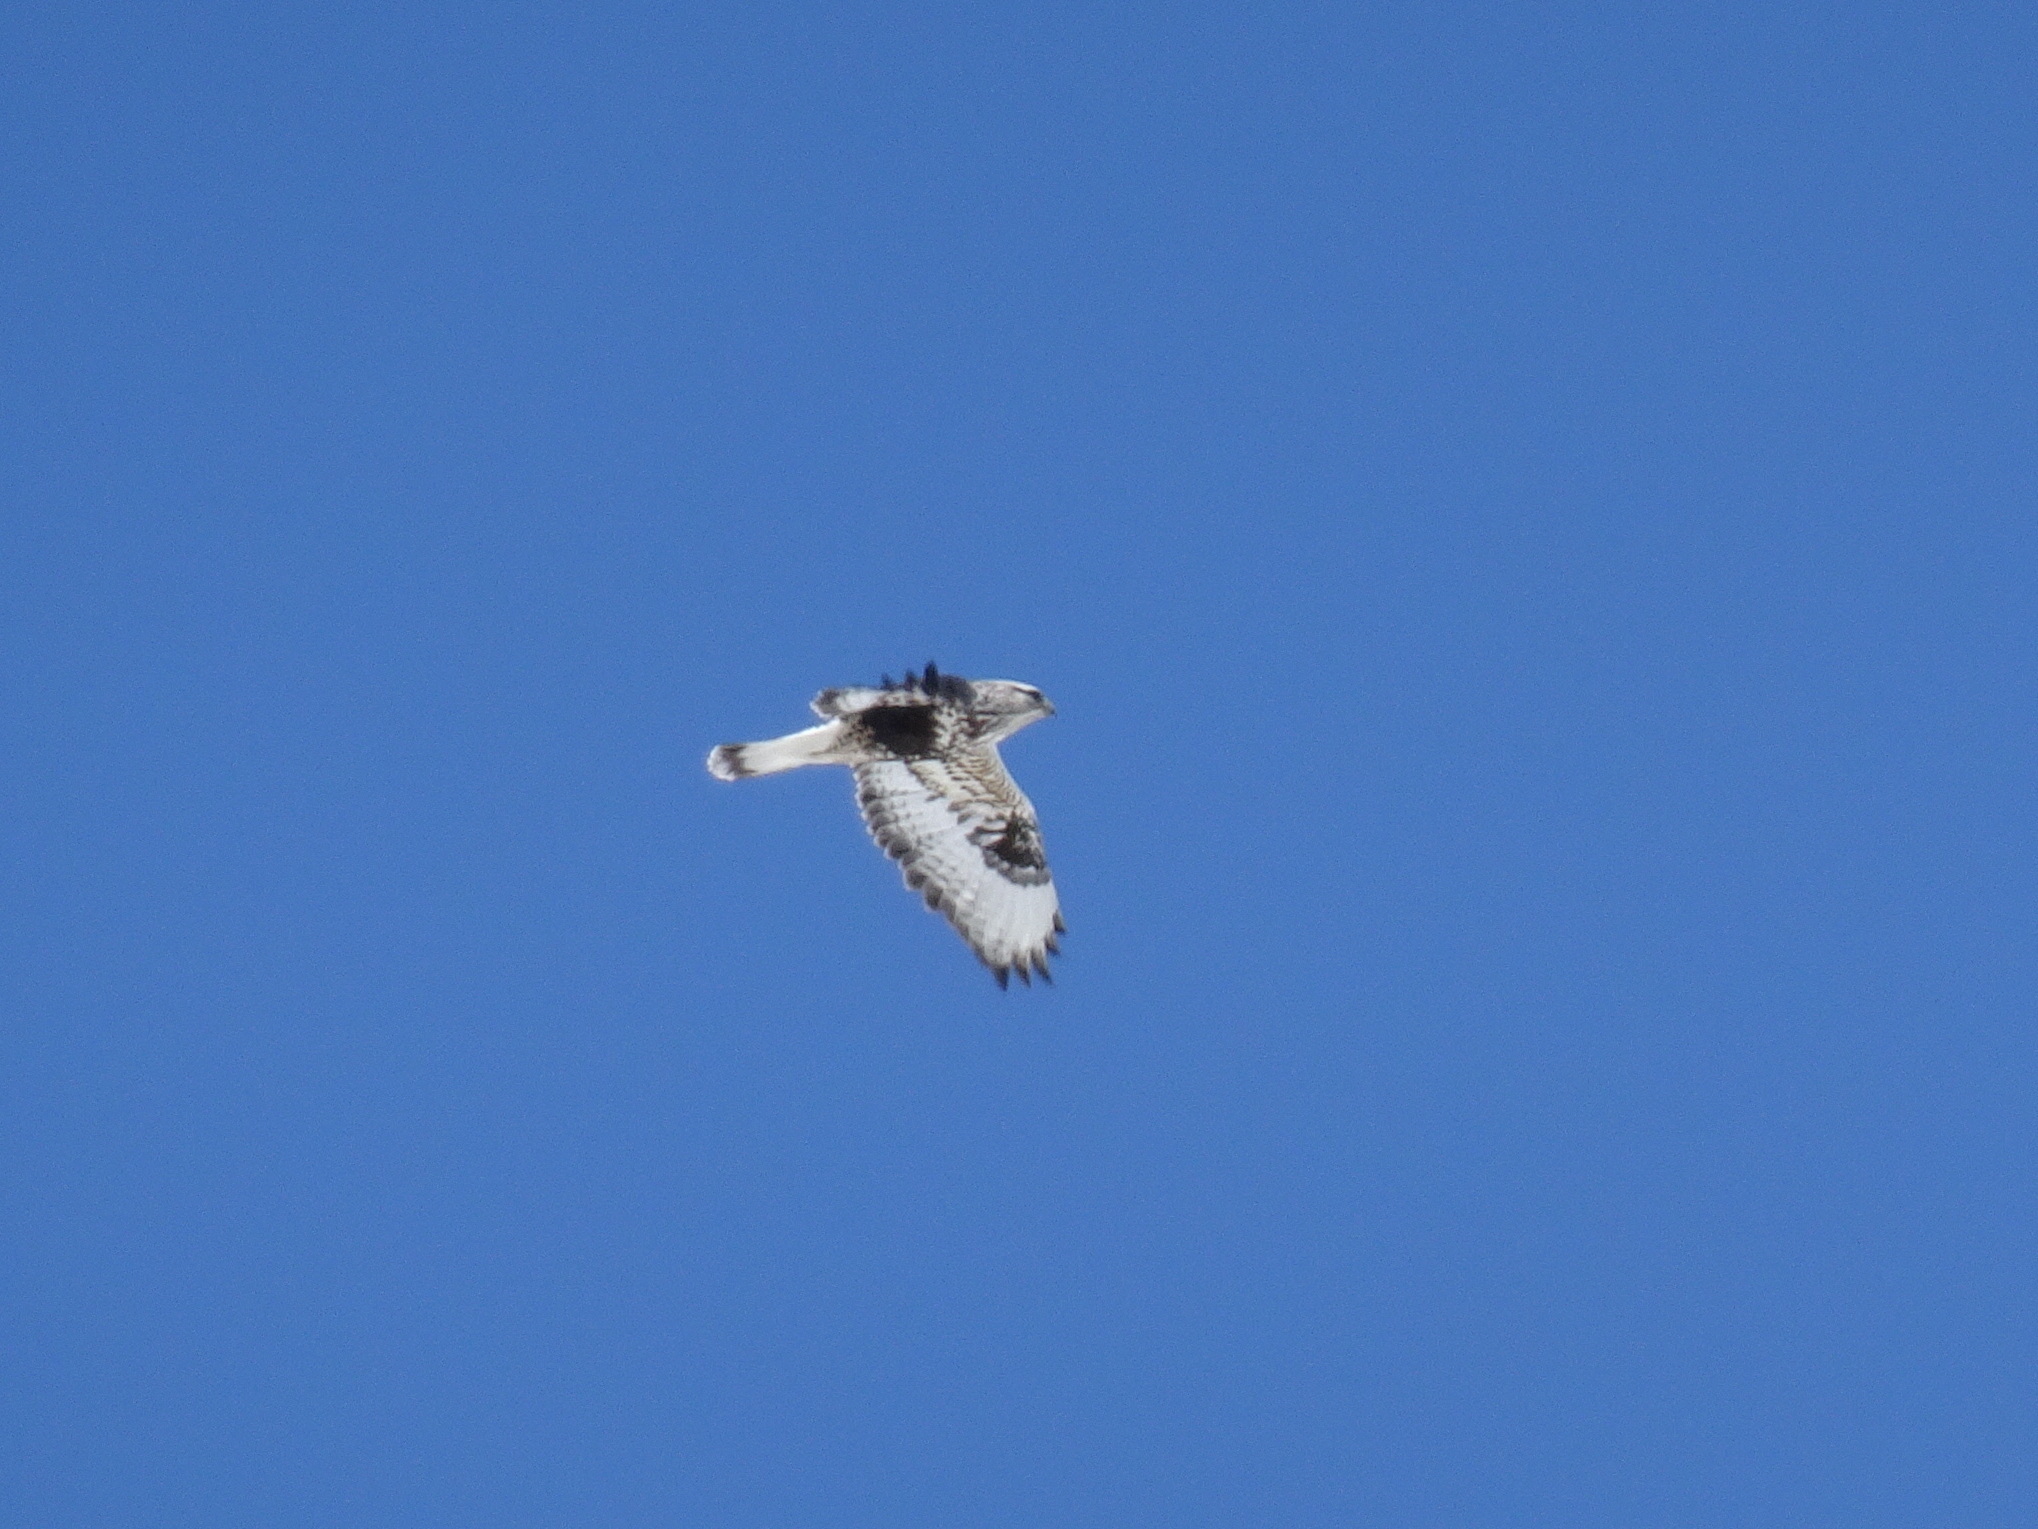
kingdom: Animalia
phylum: Chordata
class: Aves
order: Accipitriformes
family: Accipitridae
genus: Buteo
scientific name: Buteo lagopus
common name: Rough-legged buzzard
